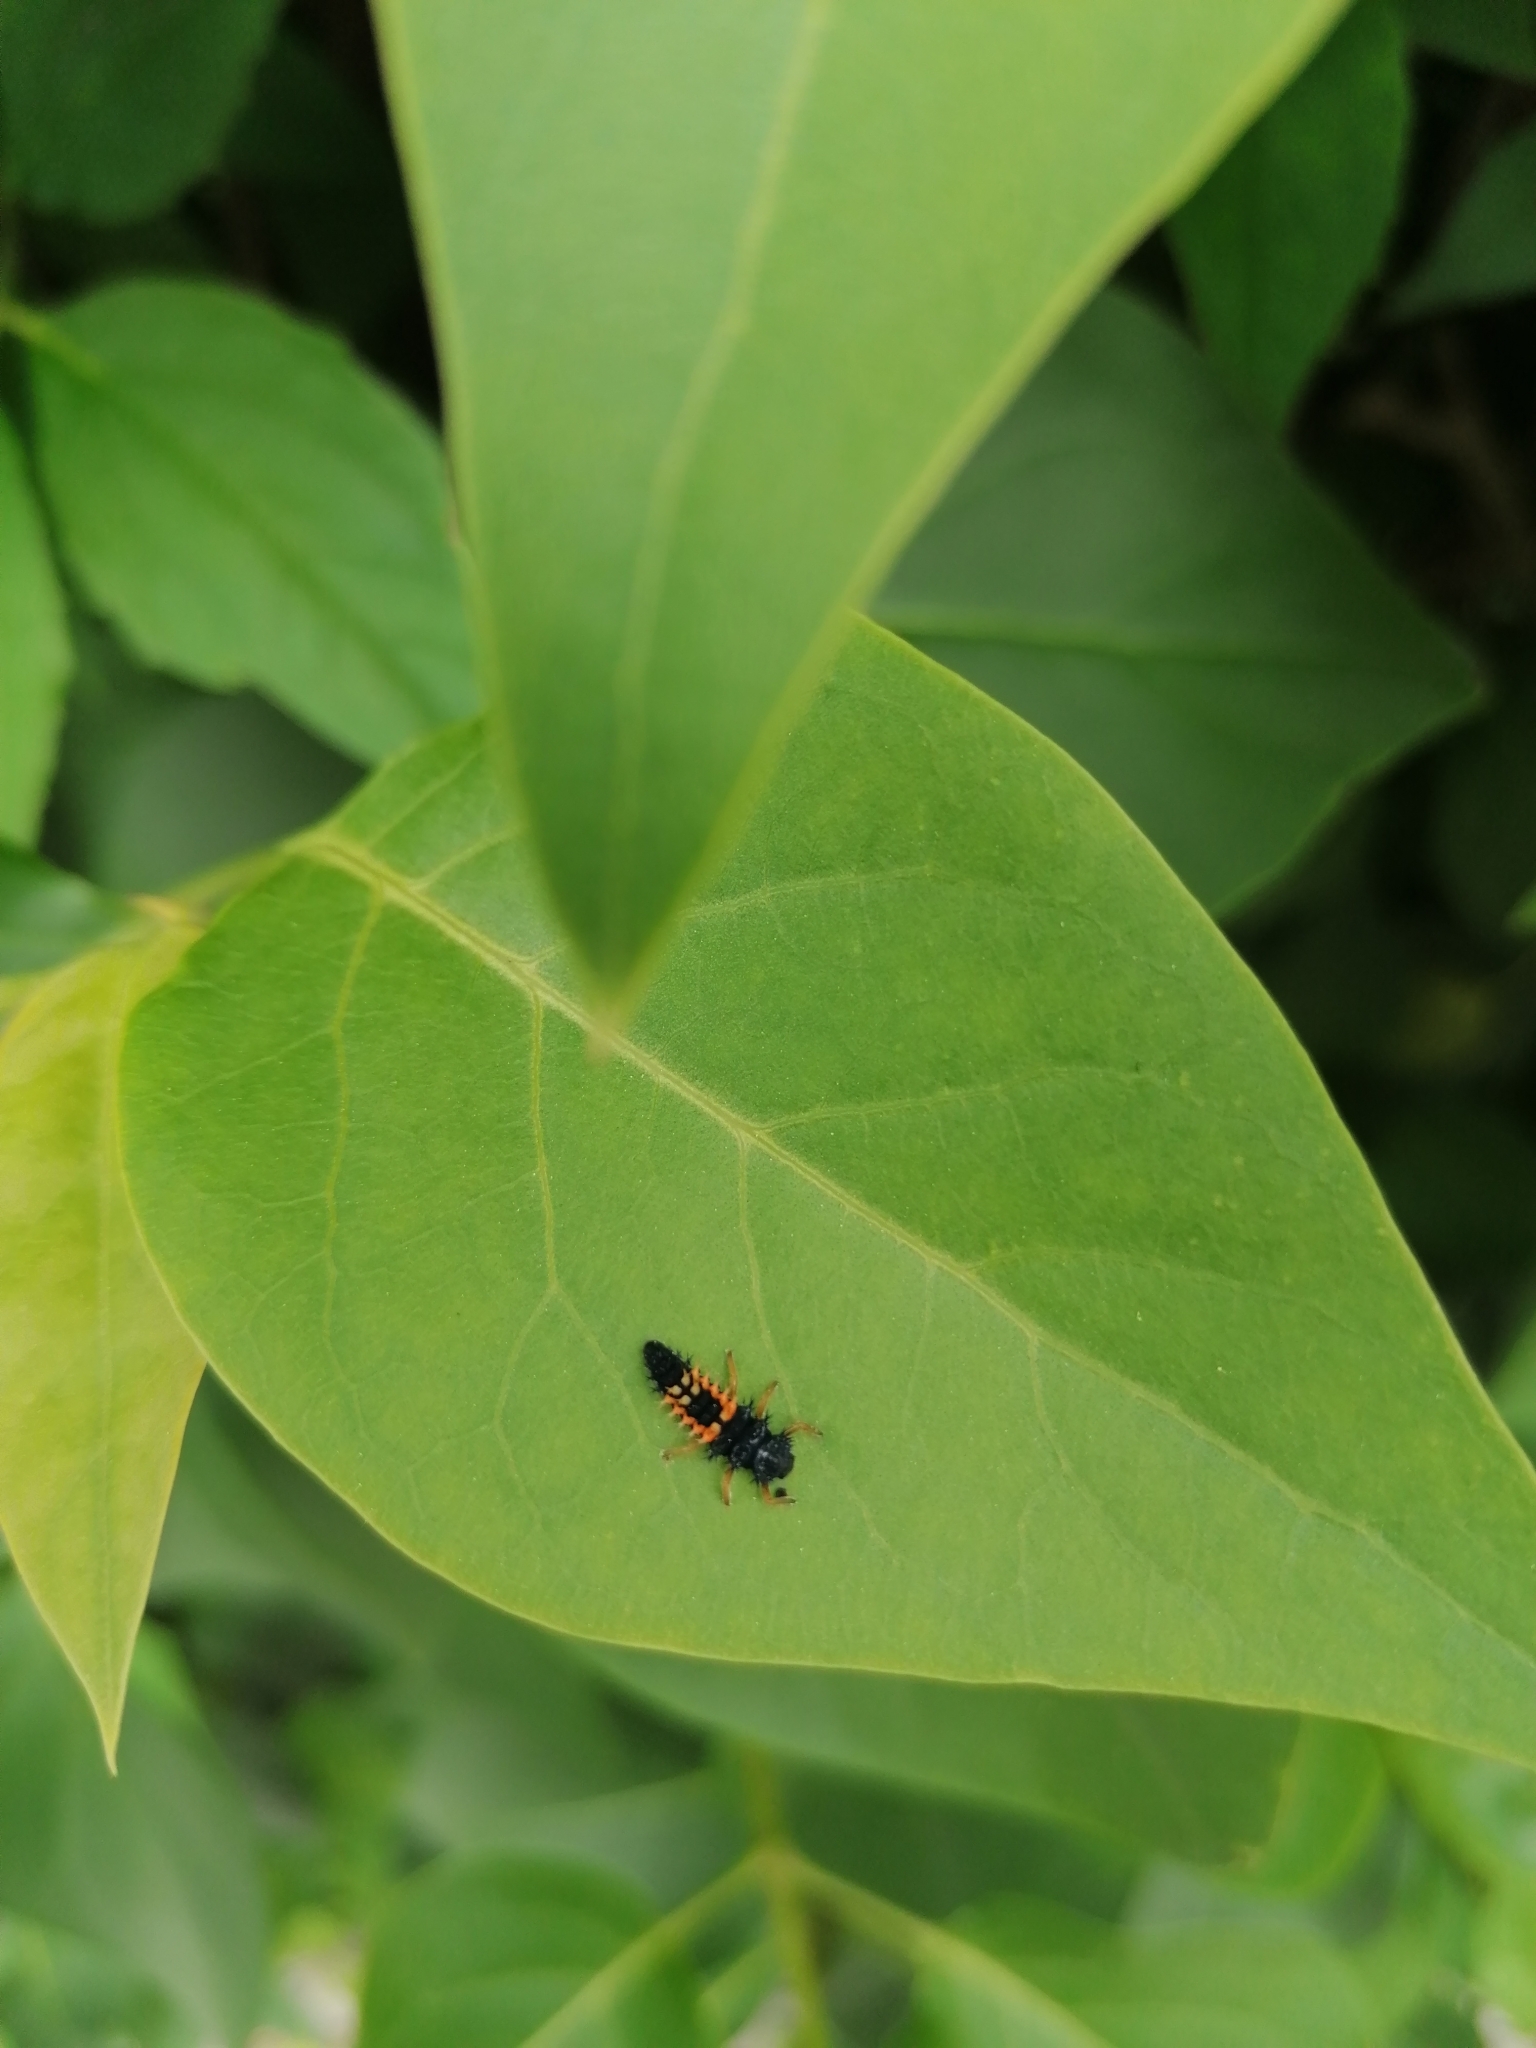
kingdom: Animalia
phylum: Arthropoda
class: Insecta
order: Coleoptera
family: Coccinellidae
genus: Harmonia
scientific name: Harmonia axyridis
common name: Harlequin ladybird
